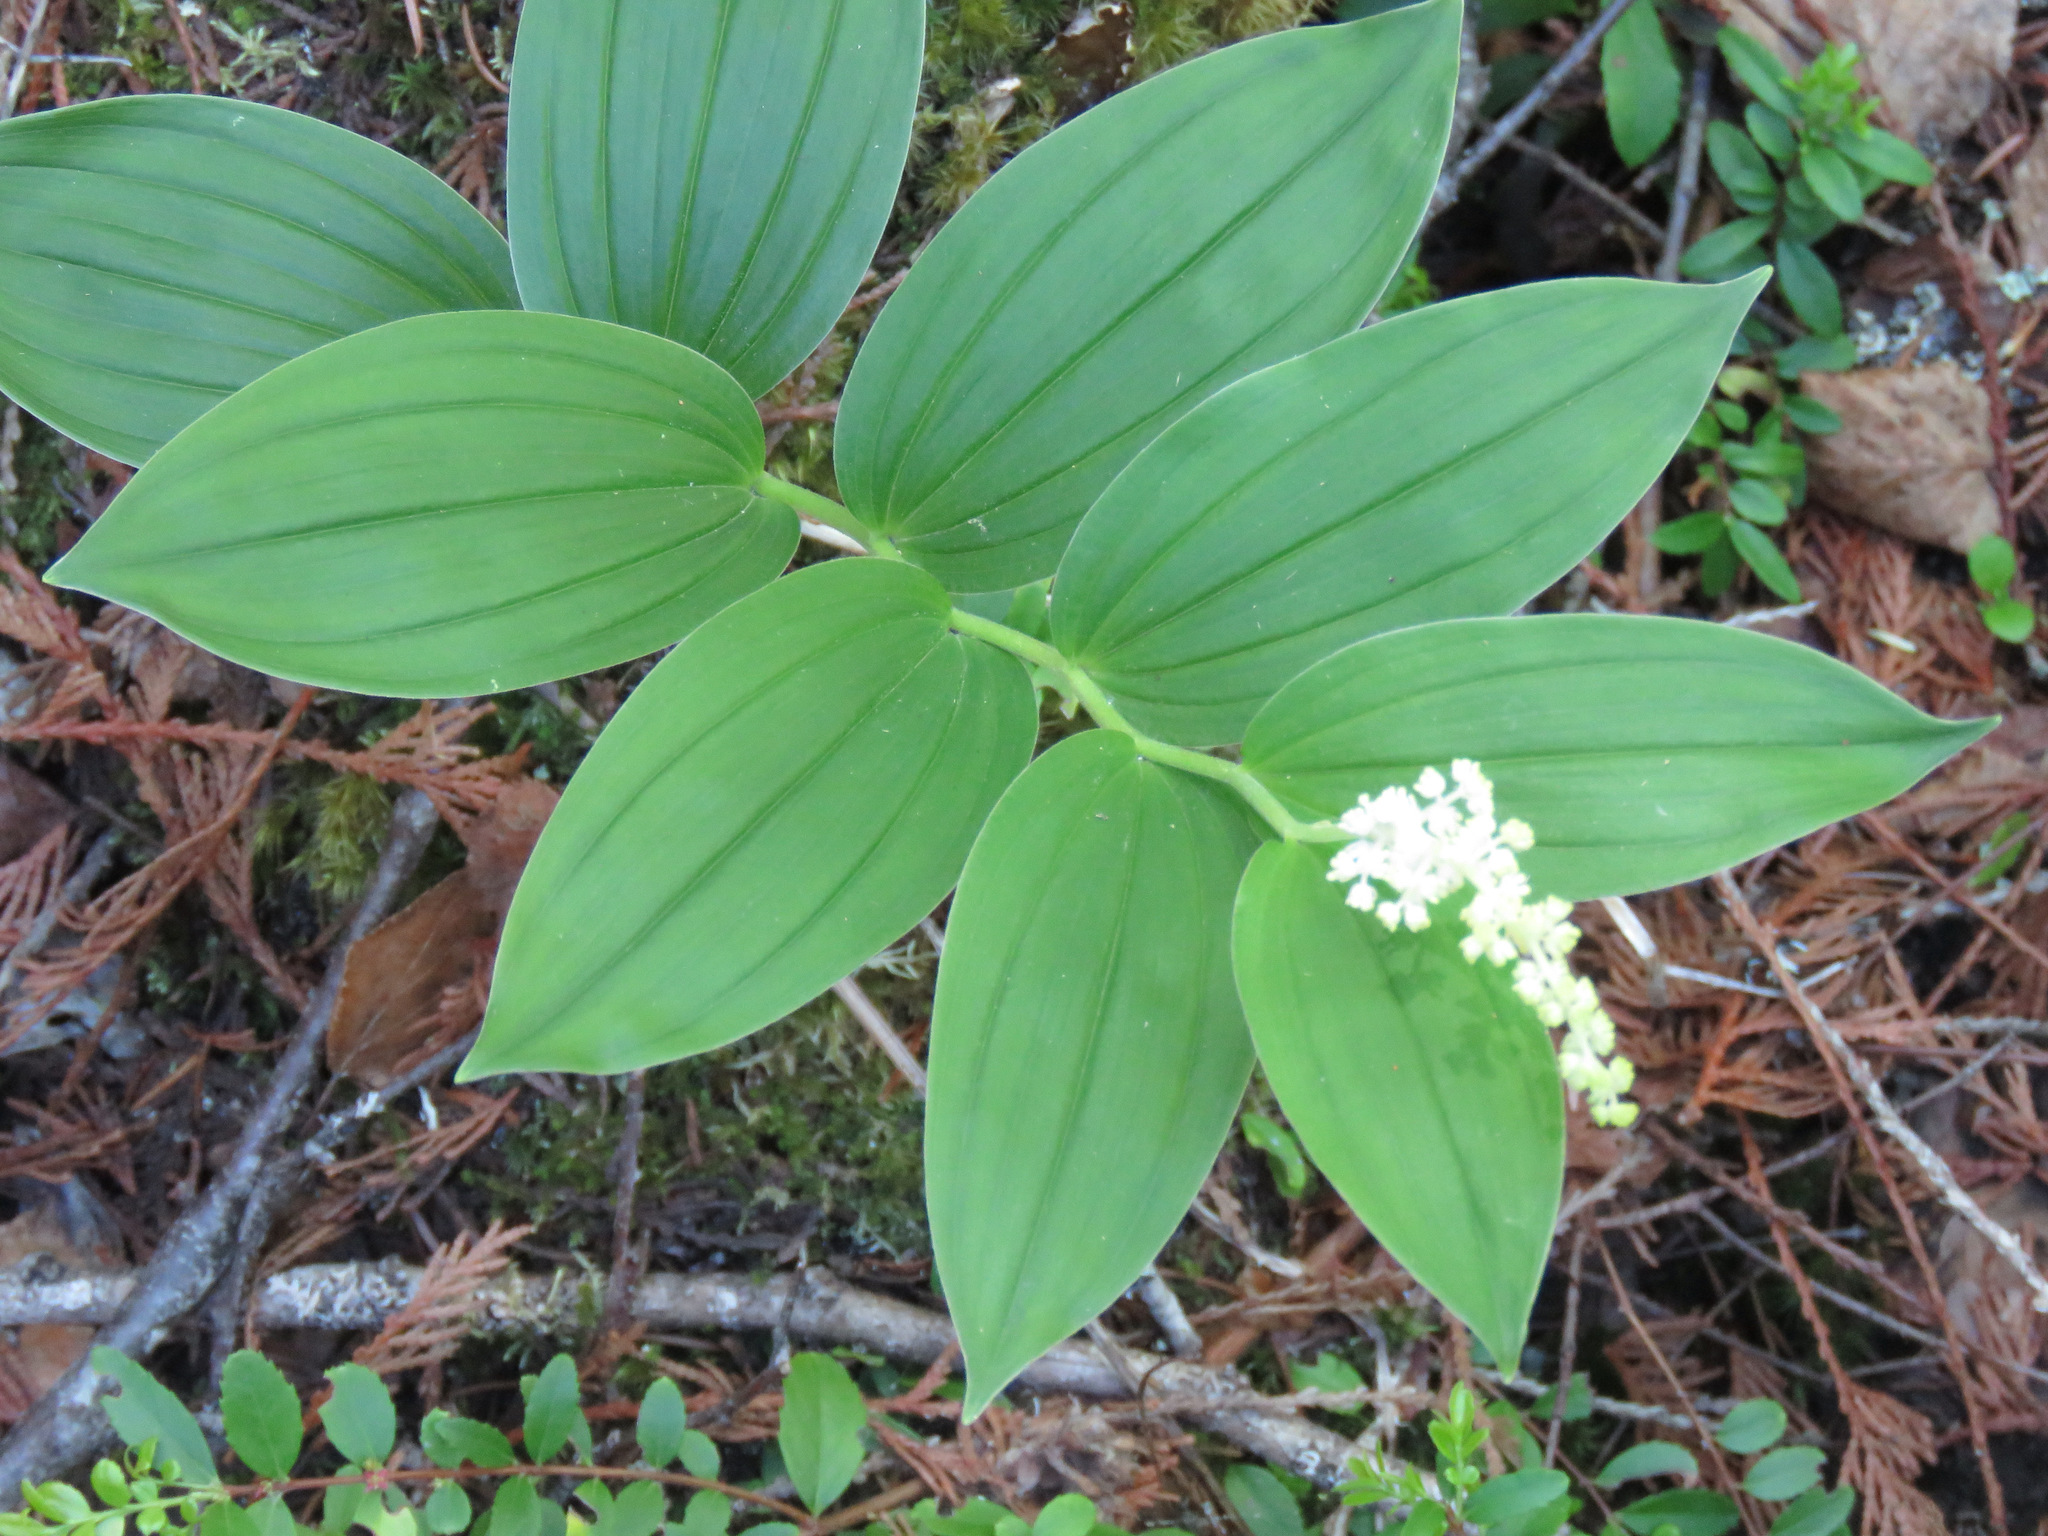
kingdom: Plantae
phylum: Tracheophyta
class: Liliopsida
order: Asparagales
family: Asparagaceae
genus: Maianthemum
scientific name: Maianthemum racemosum
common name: False spikenard
